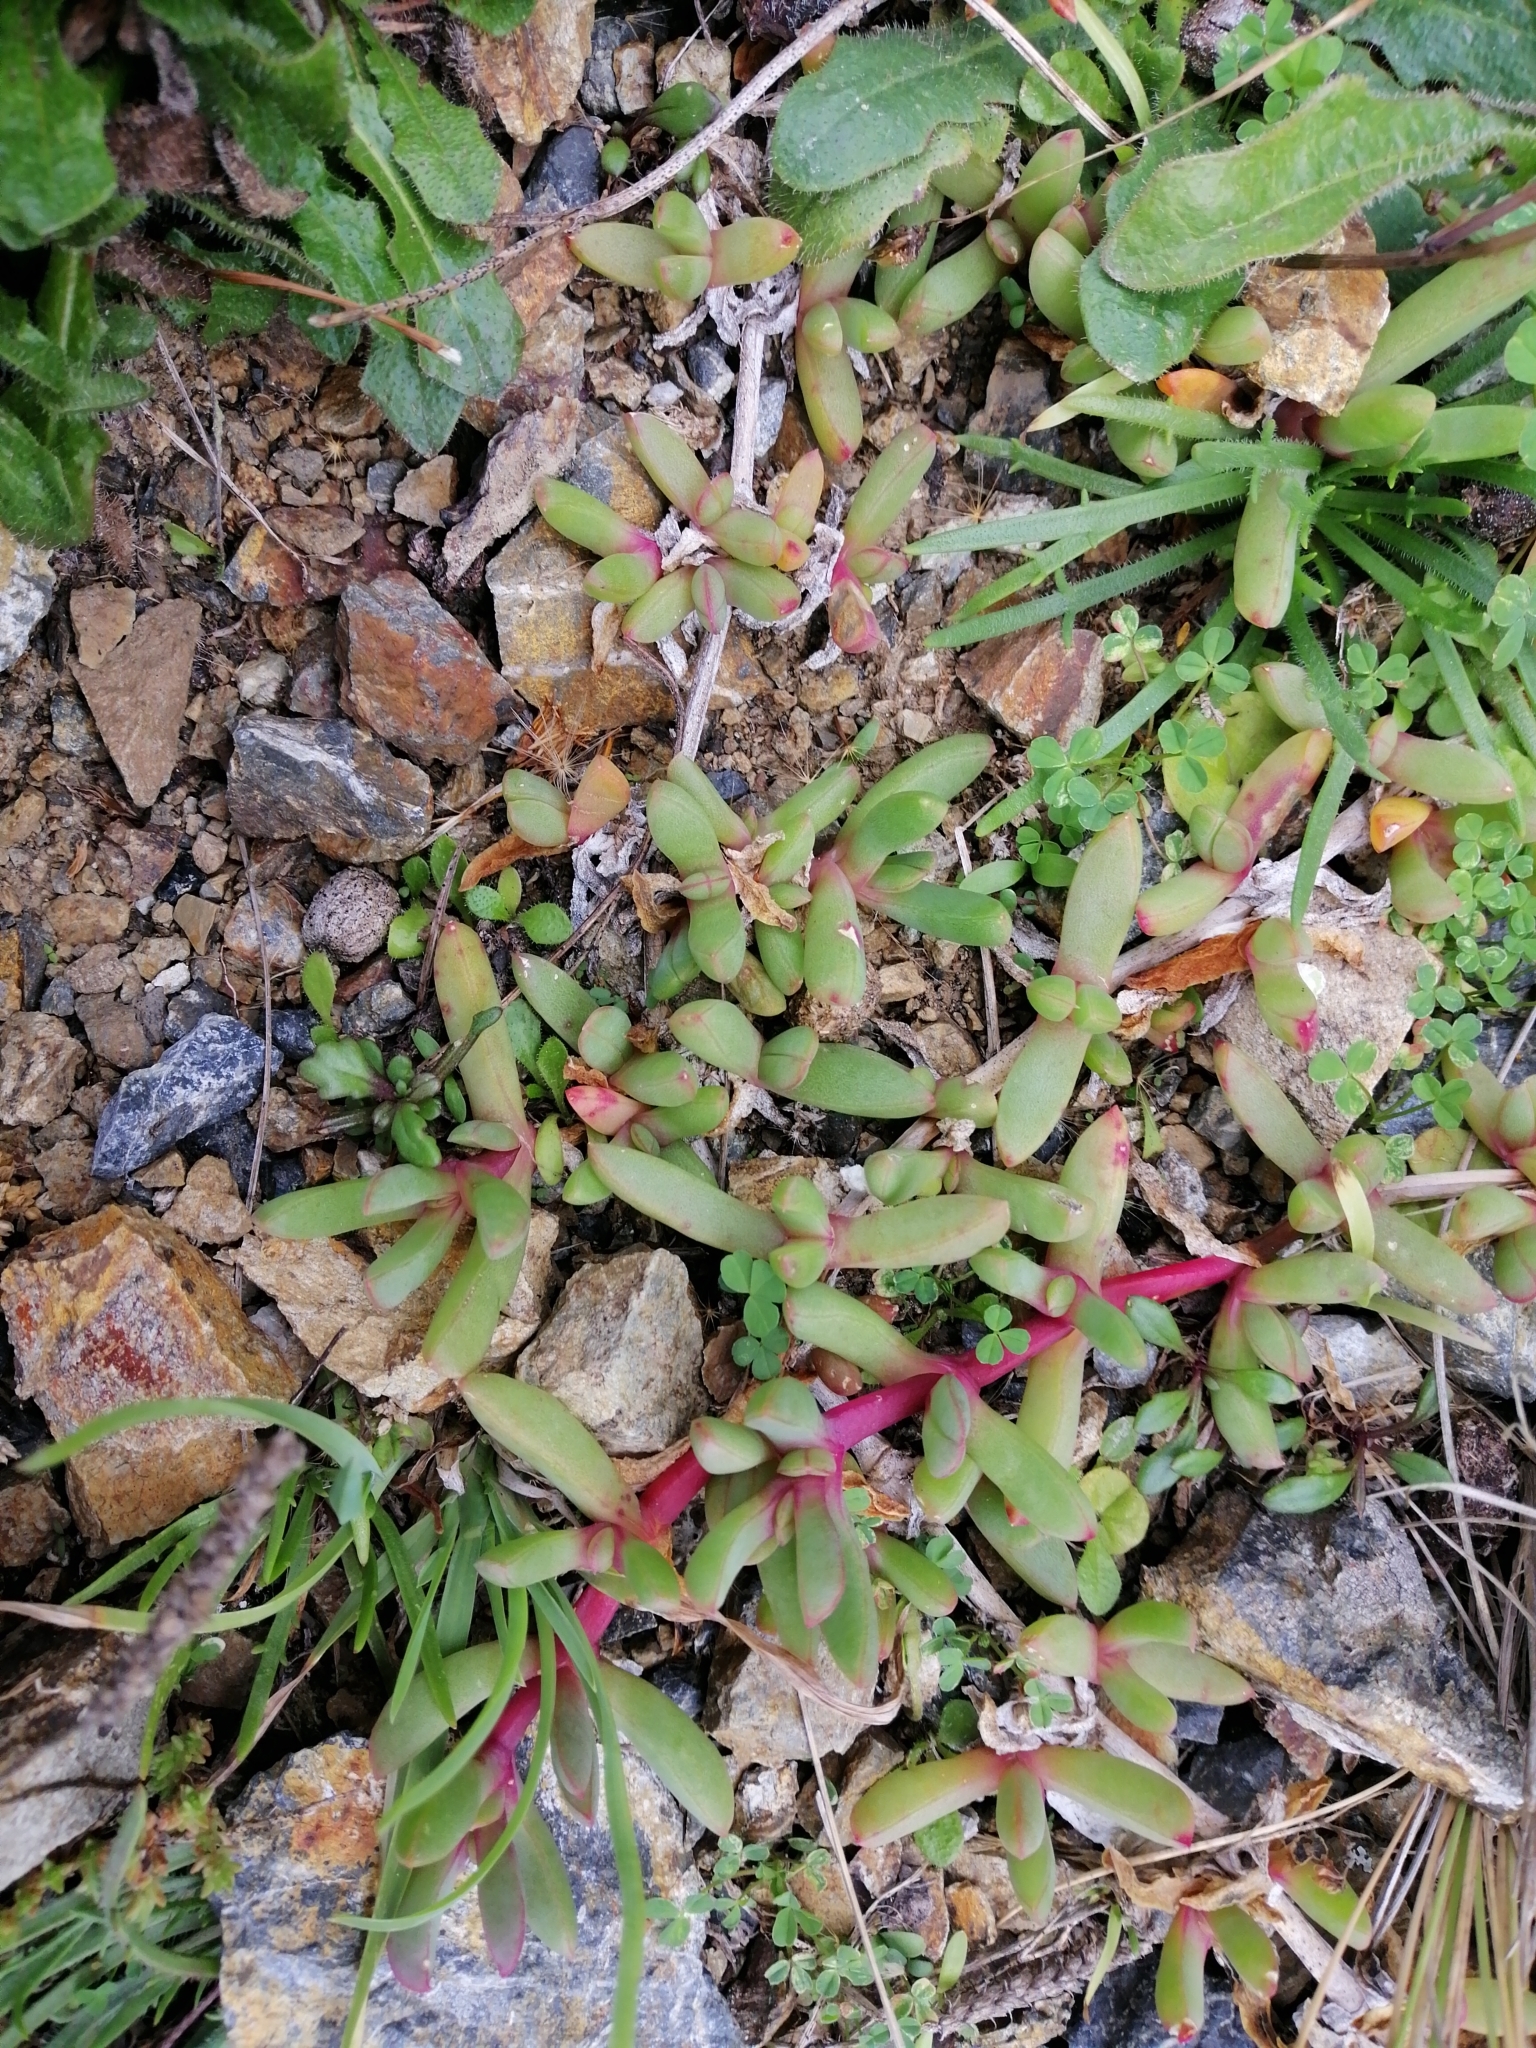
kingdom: Plantae
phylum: Tracheophyta
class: Magnoliopsida
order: Caryophyllales
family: Aizoaceae
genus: Disphyma
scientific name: Disphyma australe
